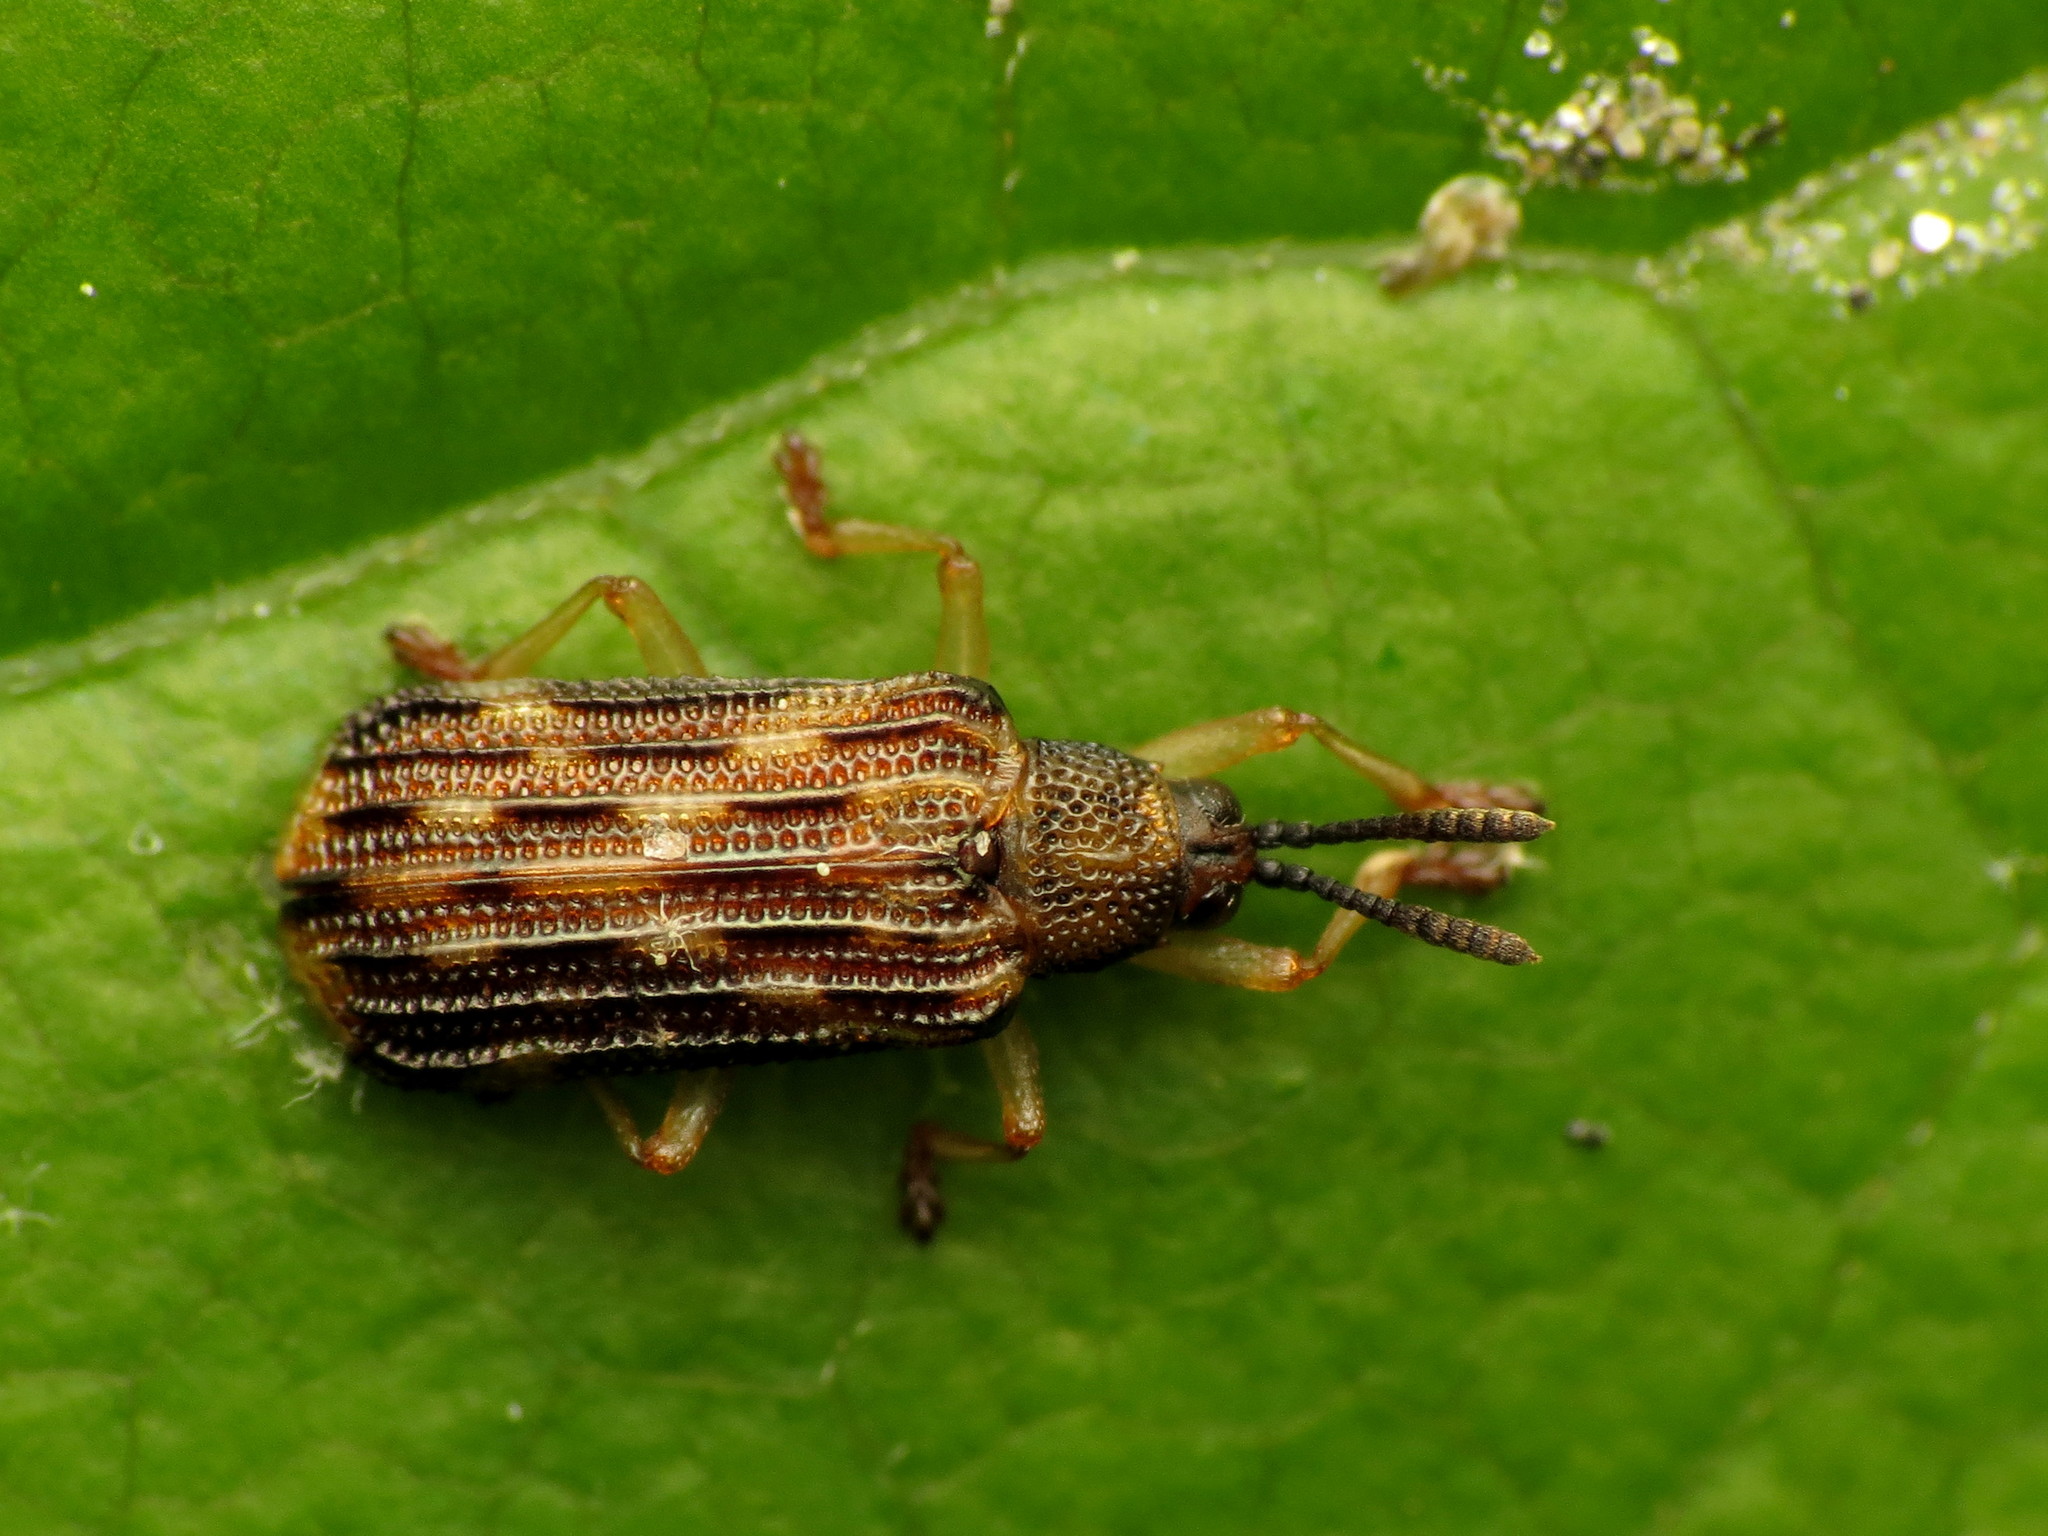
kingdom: Animalia
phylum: Arthropoda
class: Insecta
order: Coleoptera
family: Chrysomelidae
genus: Sumitrosis
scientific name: Sumitrosis inaequalis
